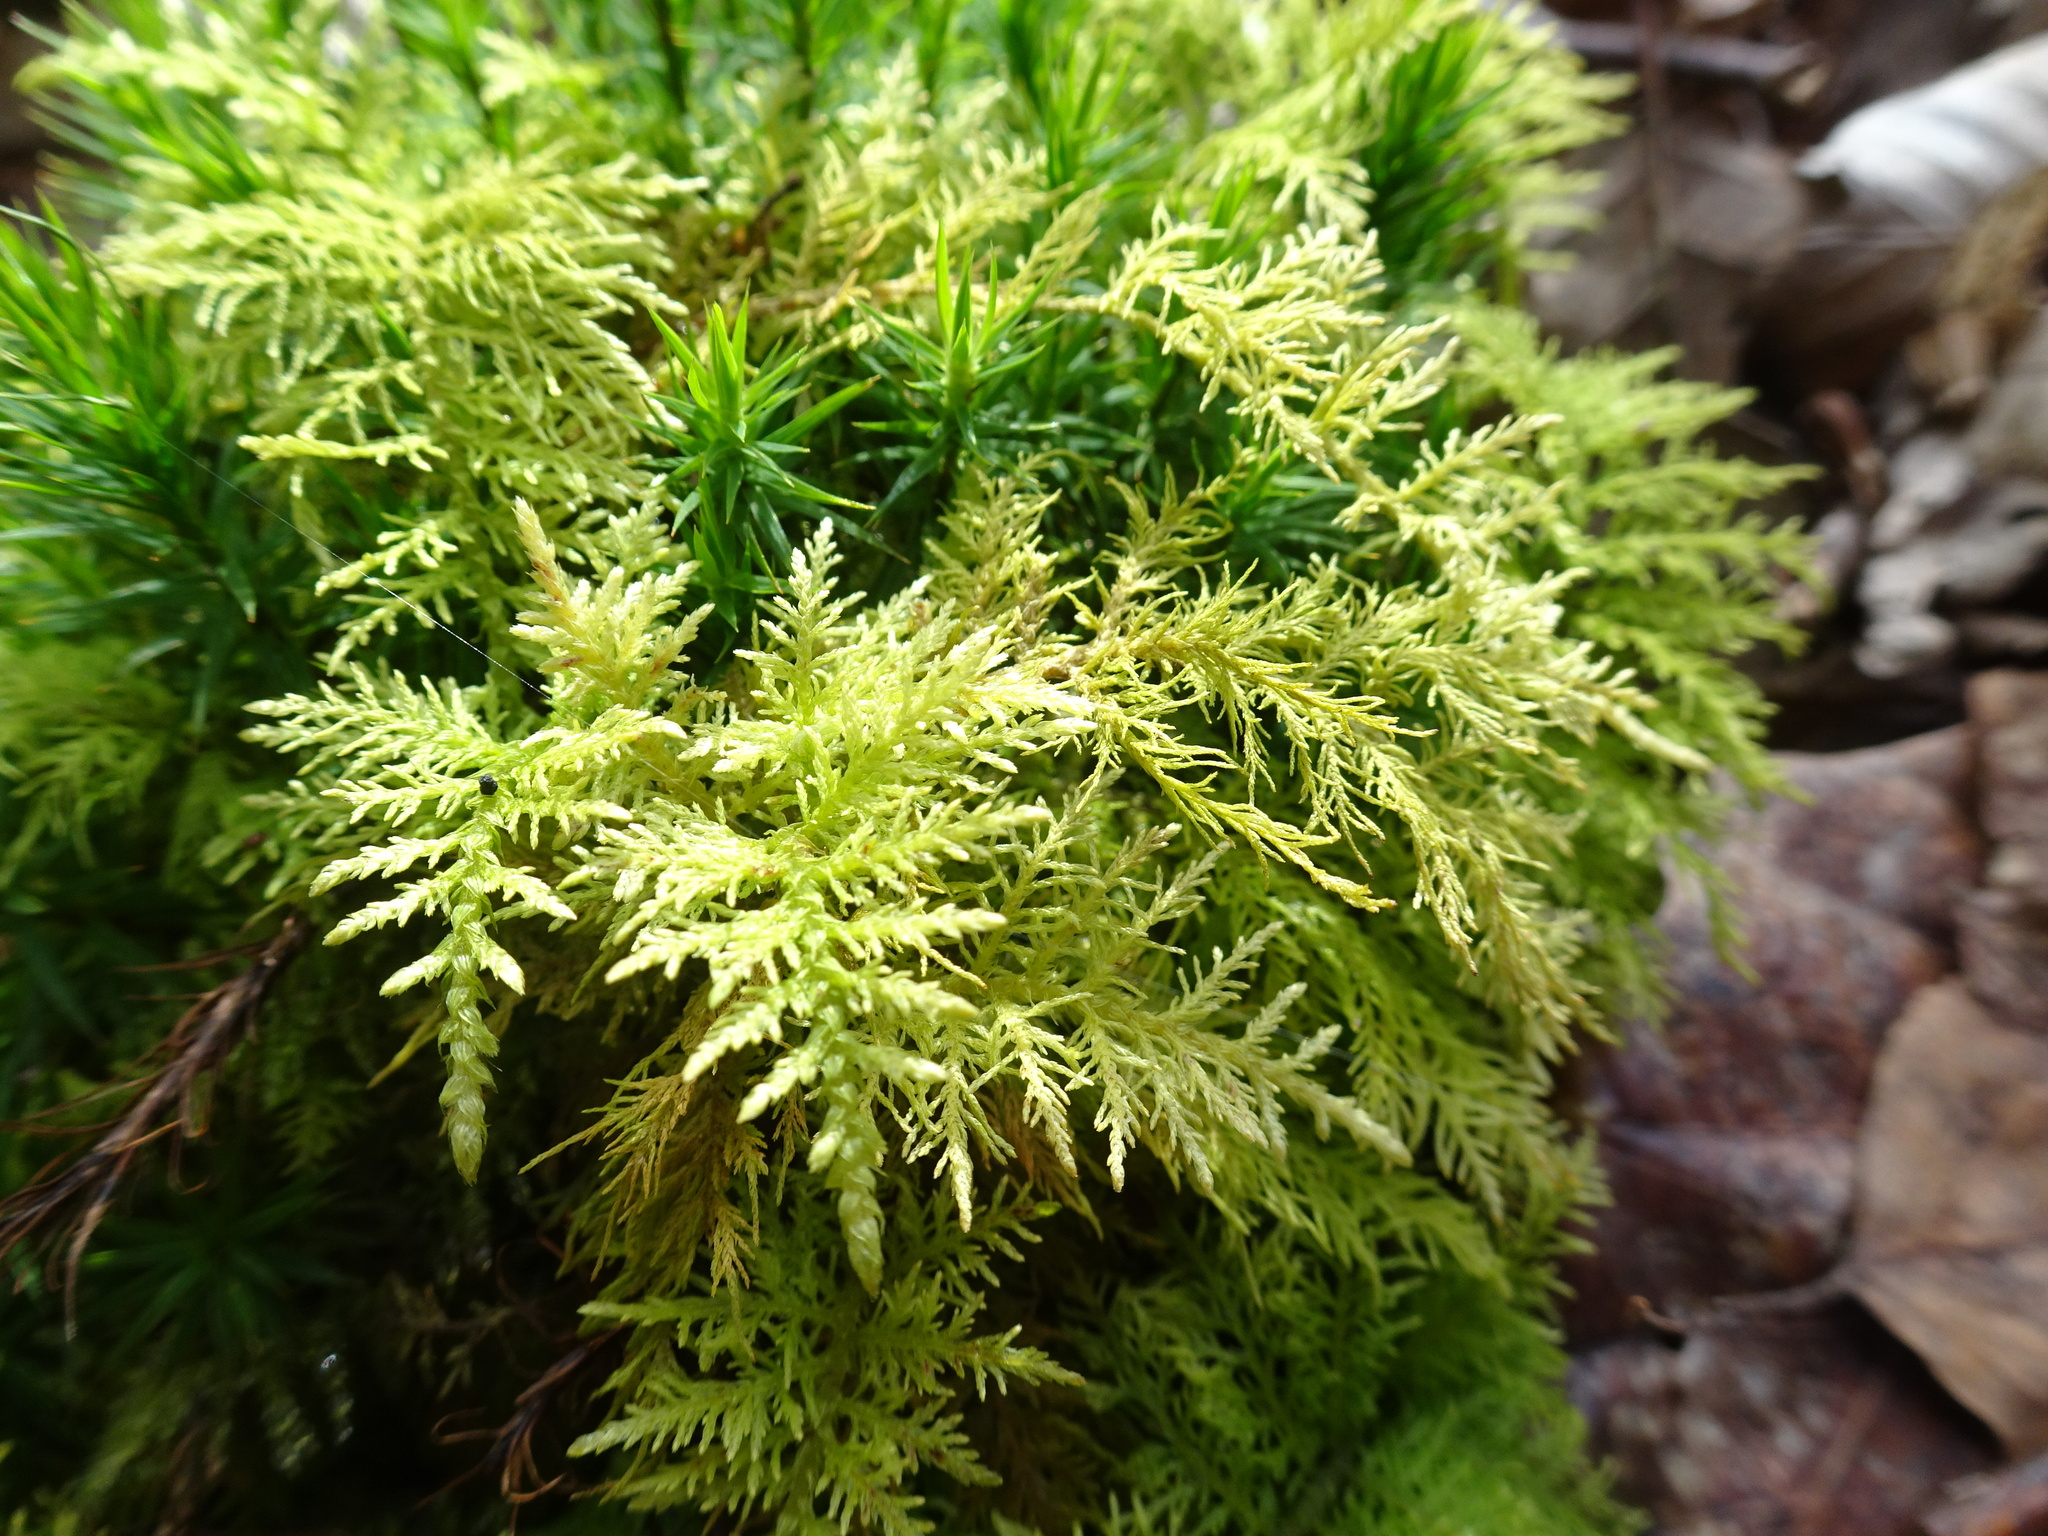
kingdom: Plantae
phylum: Bryophyta
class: Bryopsida
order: Hypnales
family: Thuidiaceae
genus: Thuidium
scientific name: Thuidium tamariscinum
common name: Common tamarisk-moss
